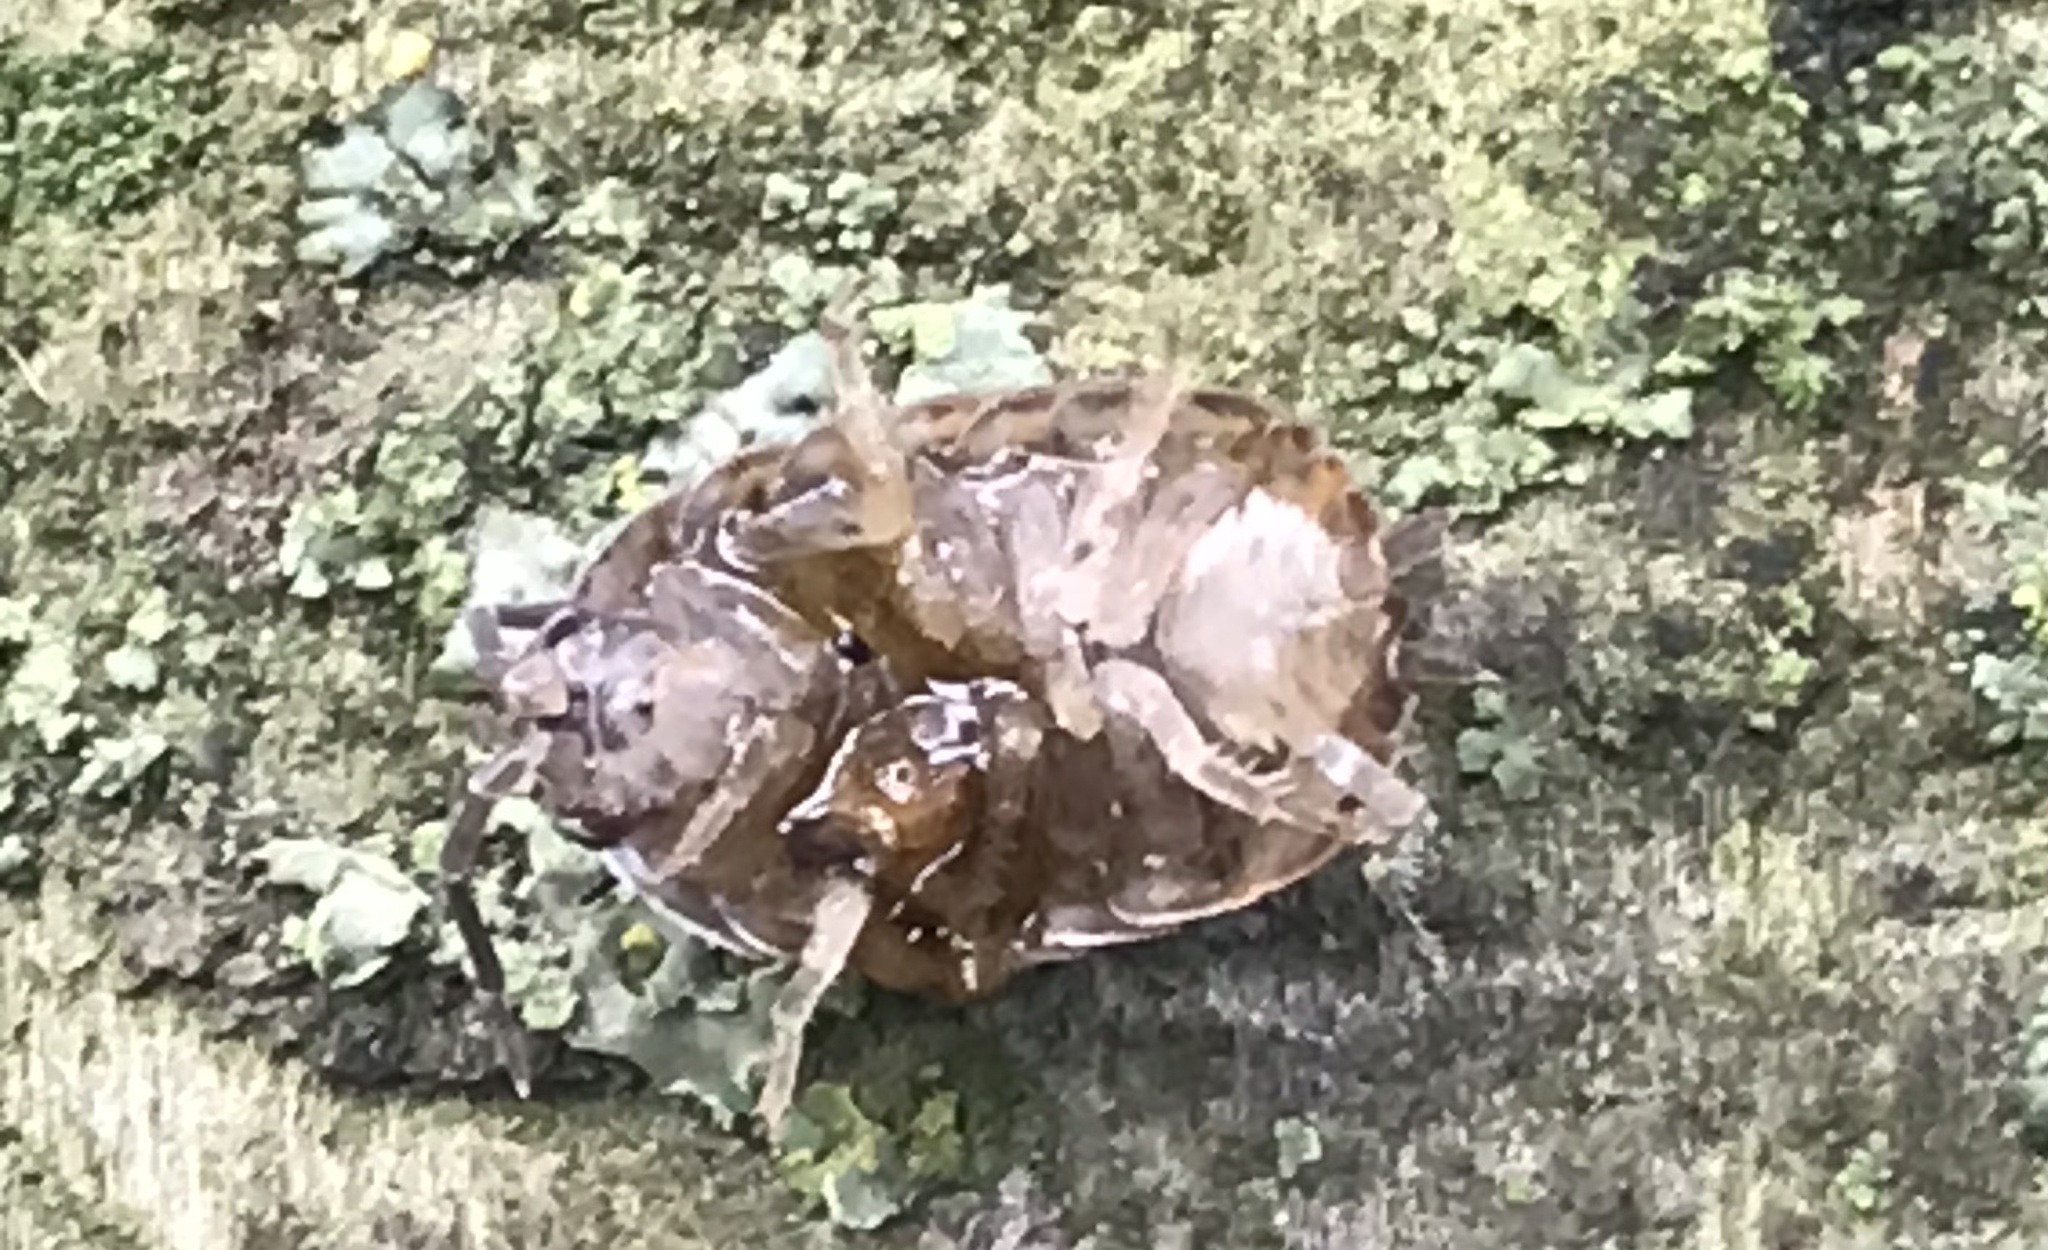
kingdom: Animalia
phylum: Arthropoda
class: Malacostraca
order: Isopoda
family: Porcellionidae
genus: Porcellio
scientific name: Porcellio scaber
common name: Common rough woodlouse
